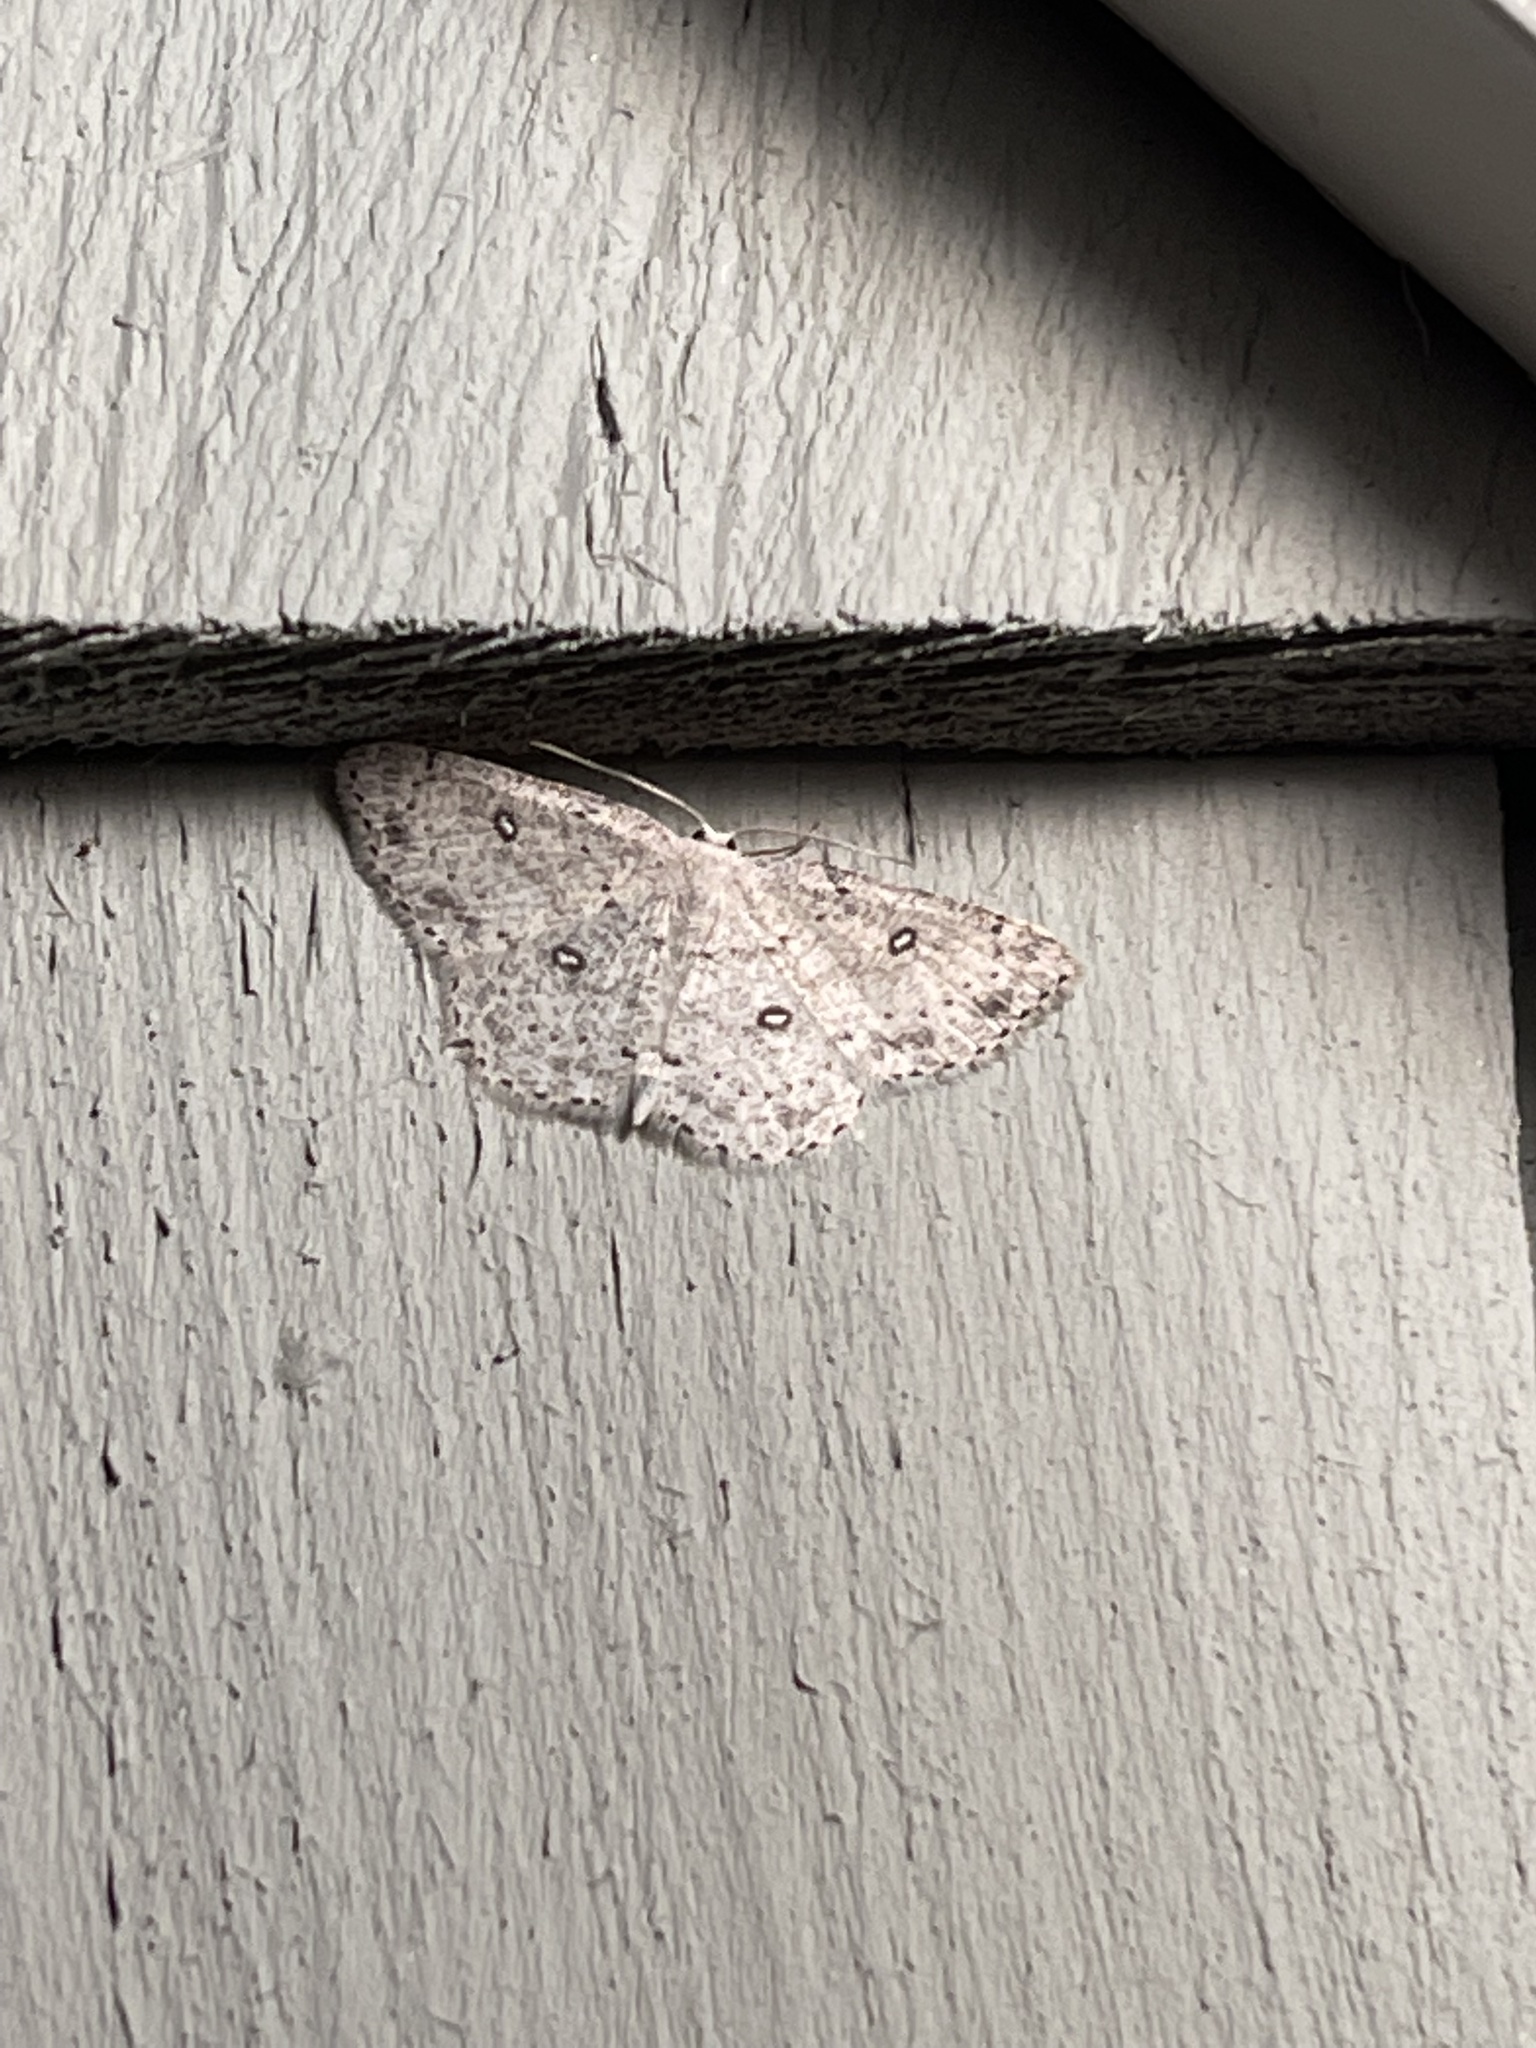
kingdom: Animalia
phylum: Arthropoda
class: Insecta
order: Lepidoptera
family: Geometridae
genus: Cyclophora
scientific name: Cyclophora pendulinaria
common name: Sweet fern geometer
